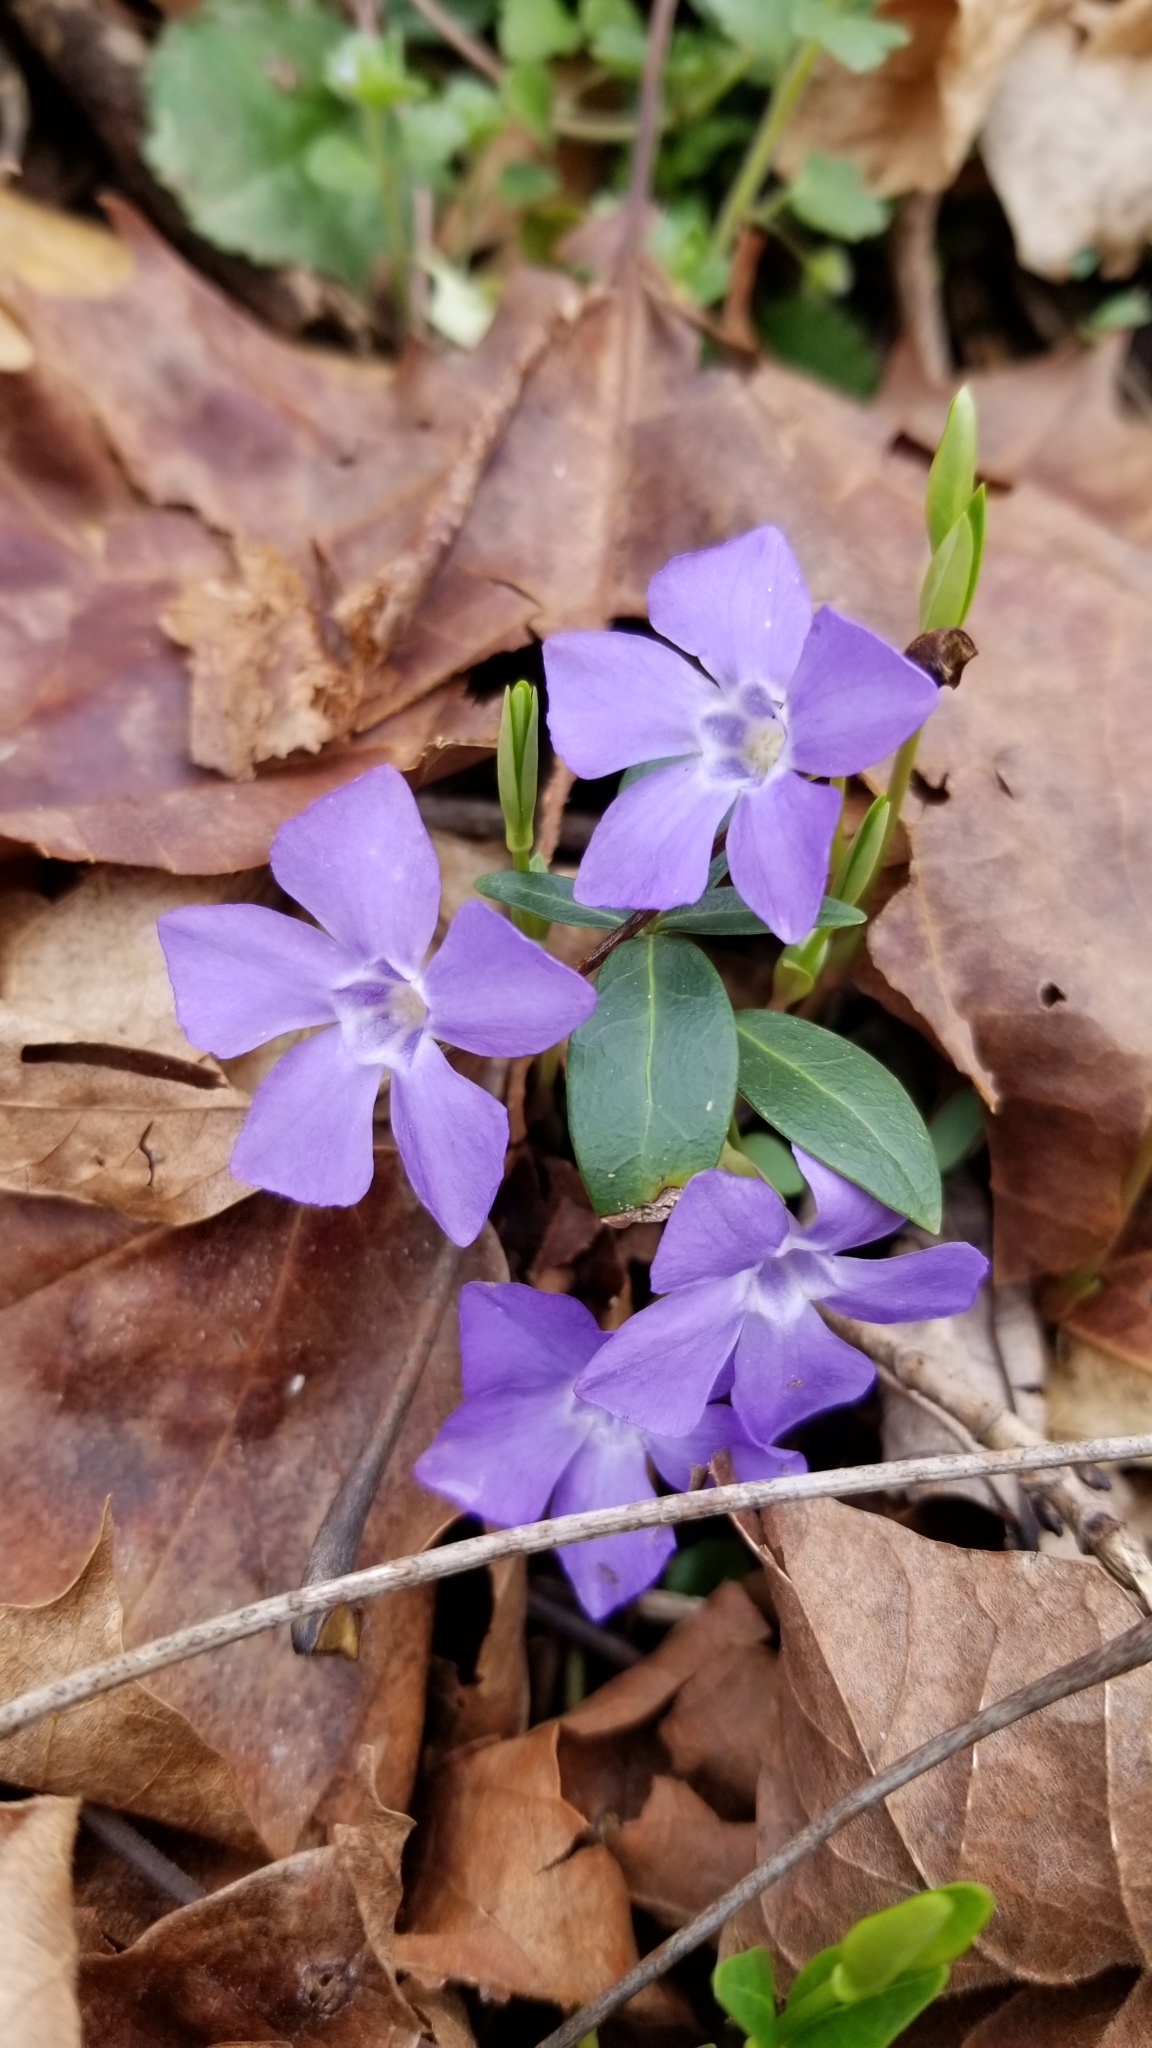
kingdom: Plantae
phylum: Tracheophyta
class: Magnoliopsida
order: Gentianales
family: Apocynaceae
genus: Vinca
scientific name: Vinca minor
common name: Lesser periwinkle
